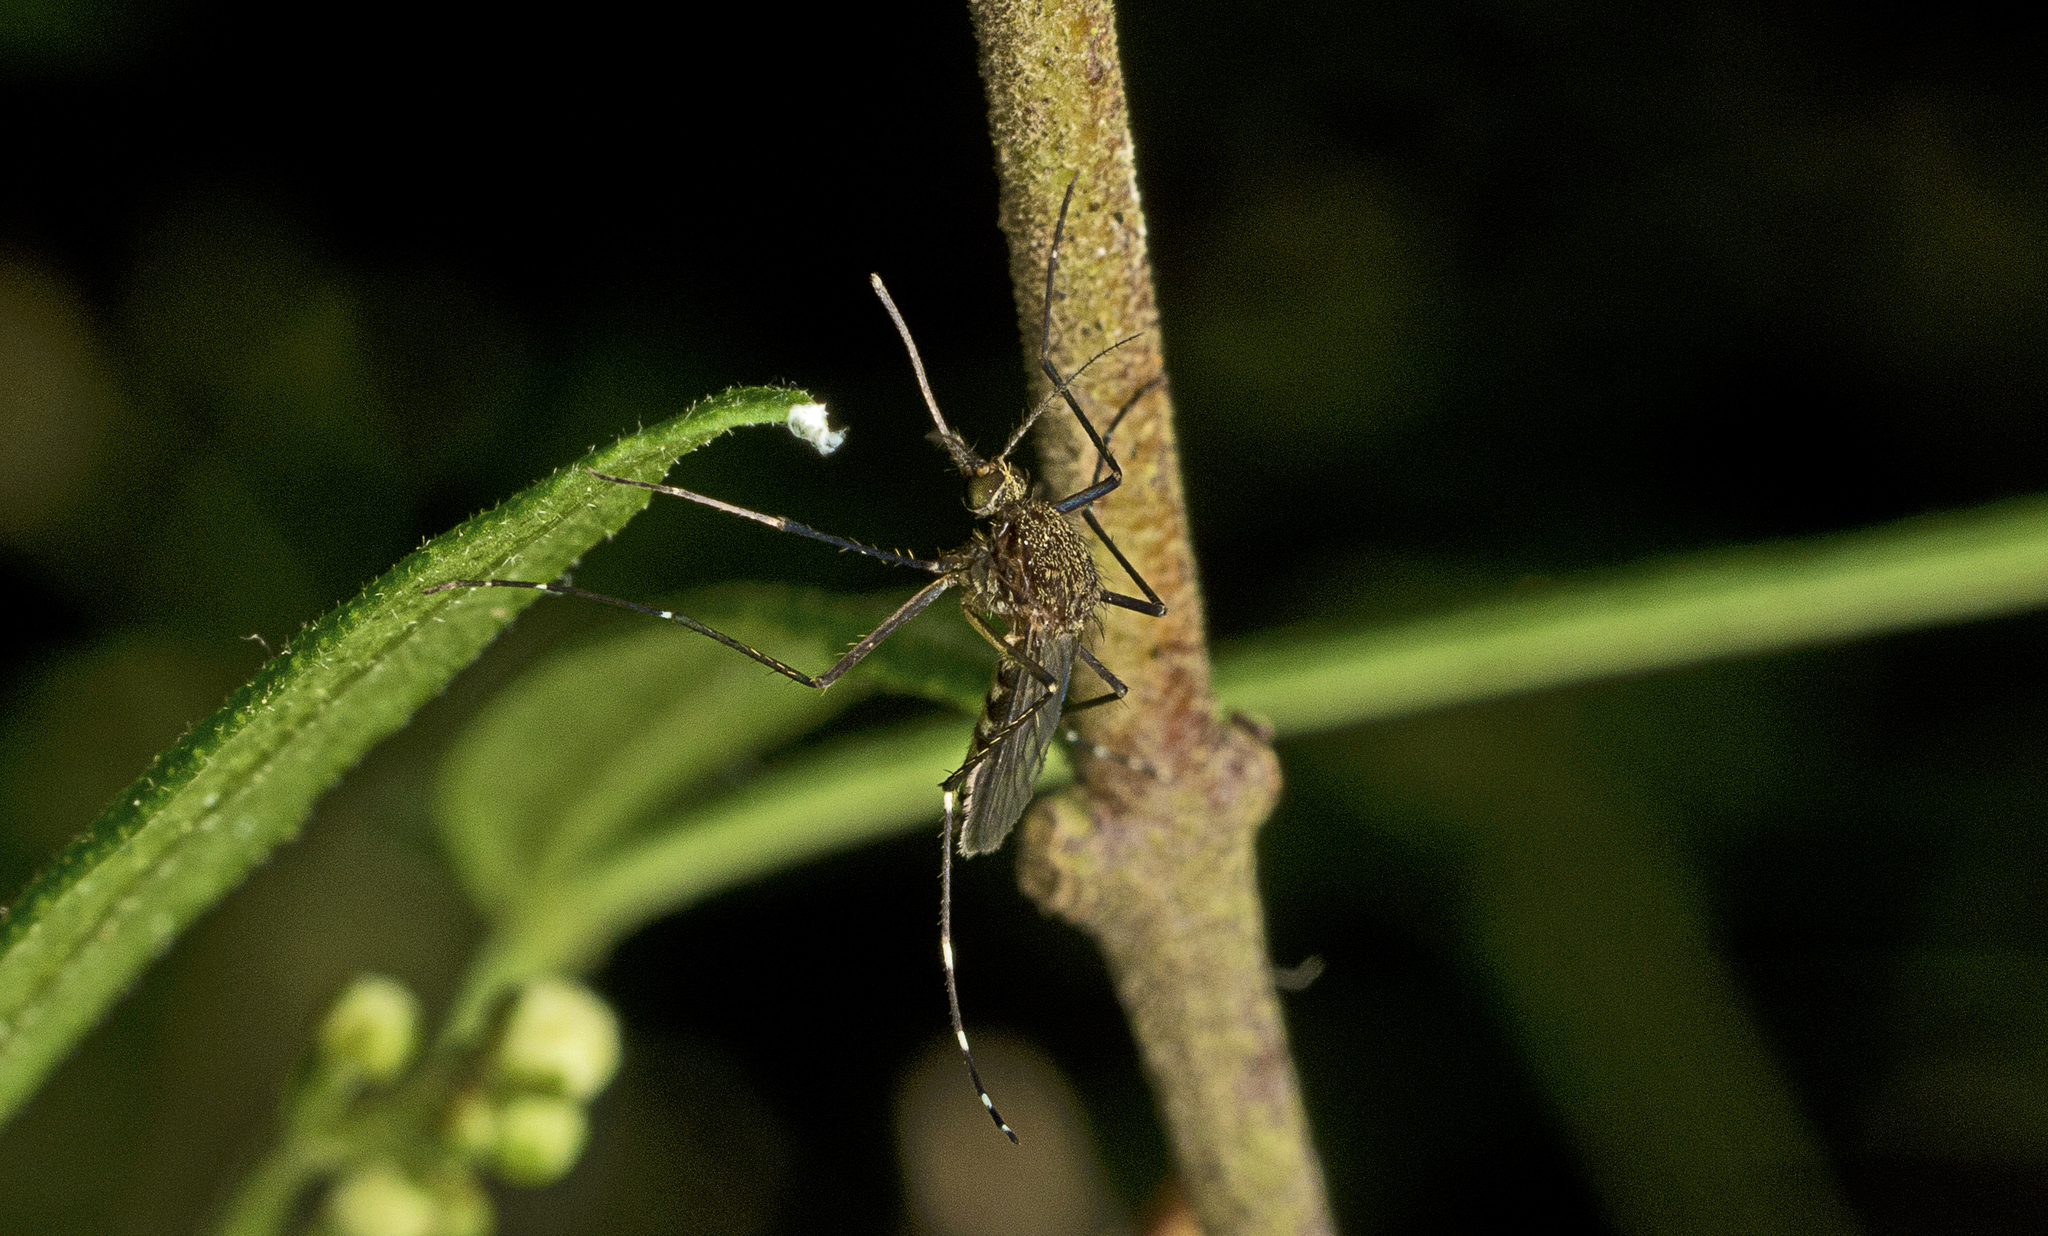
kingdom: Animalia
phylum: Arthropoda
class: Insecta
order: Diptera
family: Culicidae
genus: Aedes
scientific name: Aedes procax
